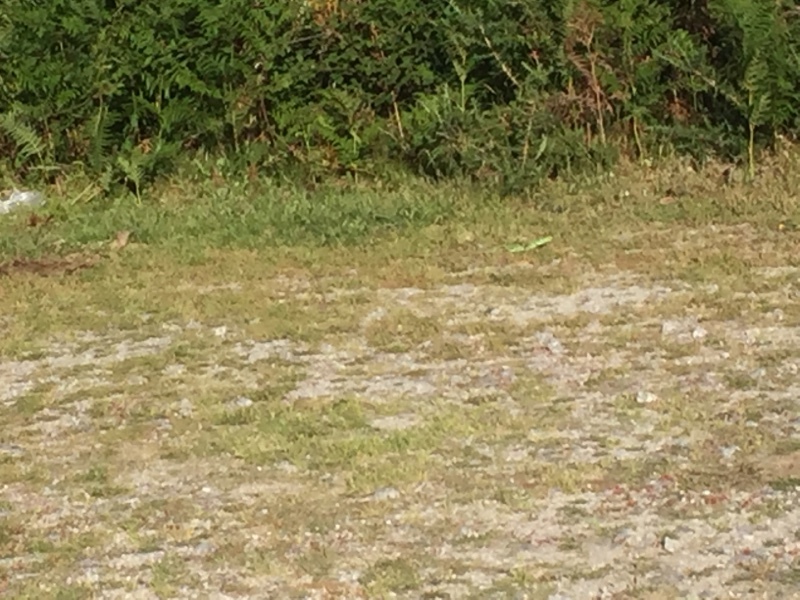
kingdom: Animalia
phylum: Chordata
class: Squamata
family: Lacertidae
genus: Timon
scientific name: Timon lepidus
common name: Ocellated lizard
